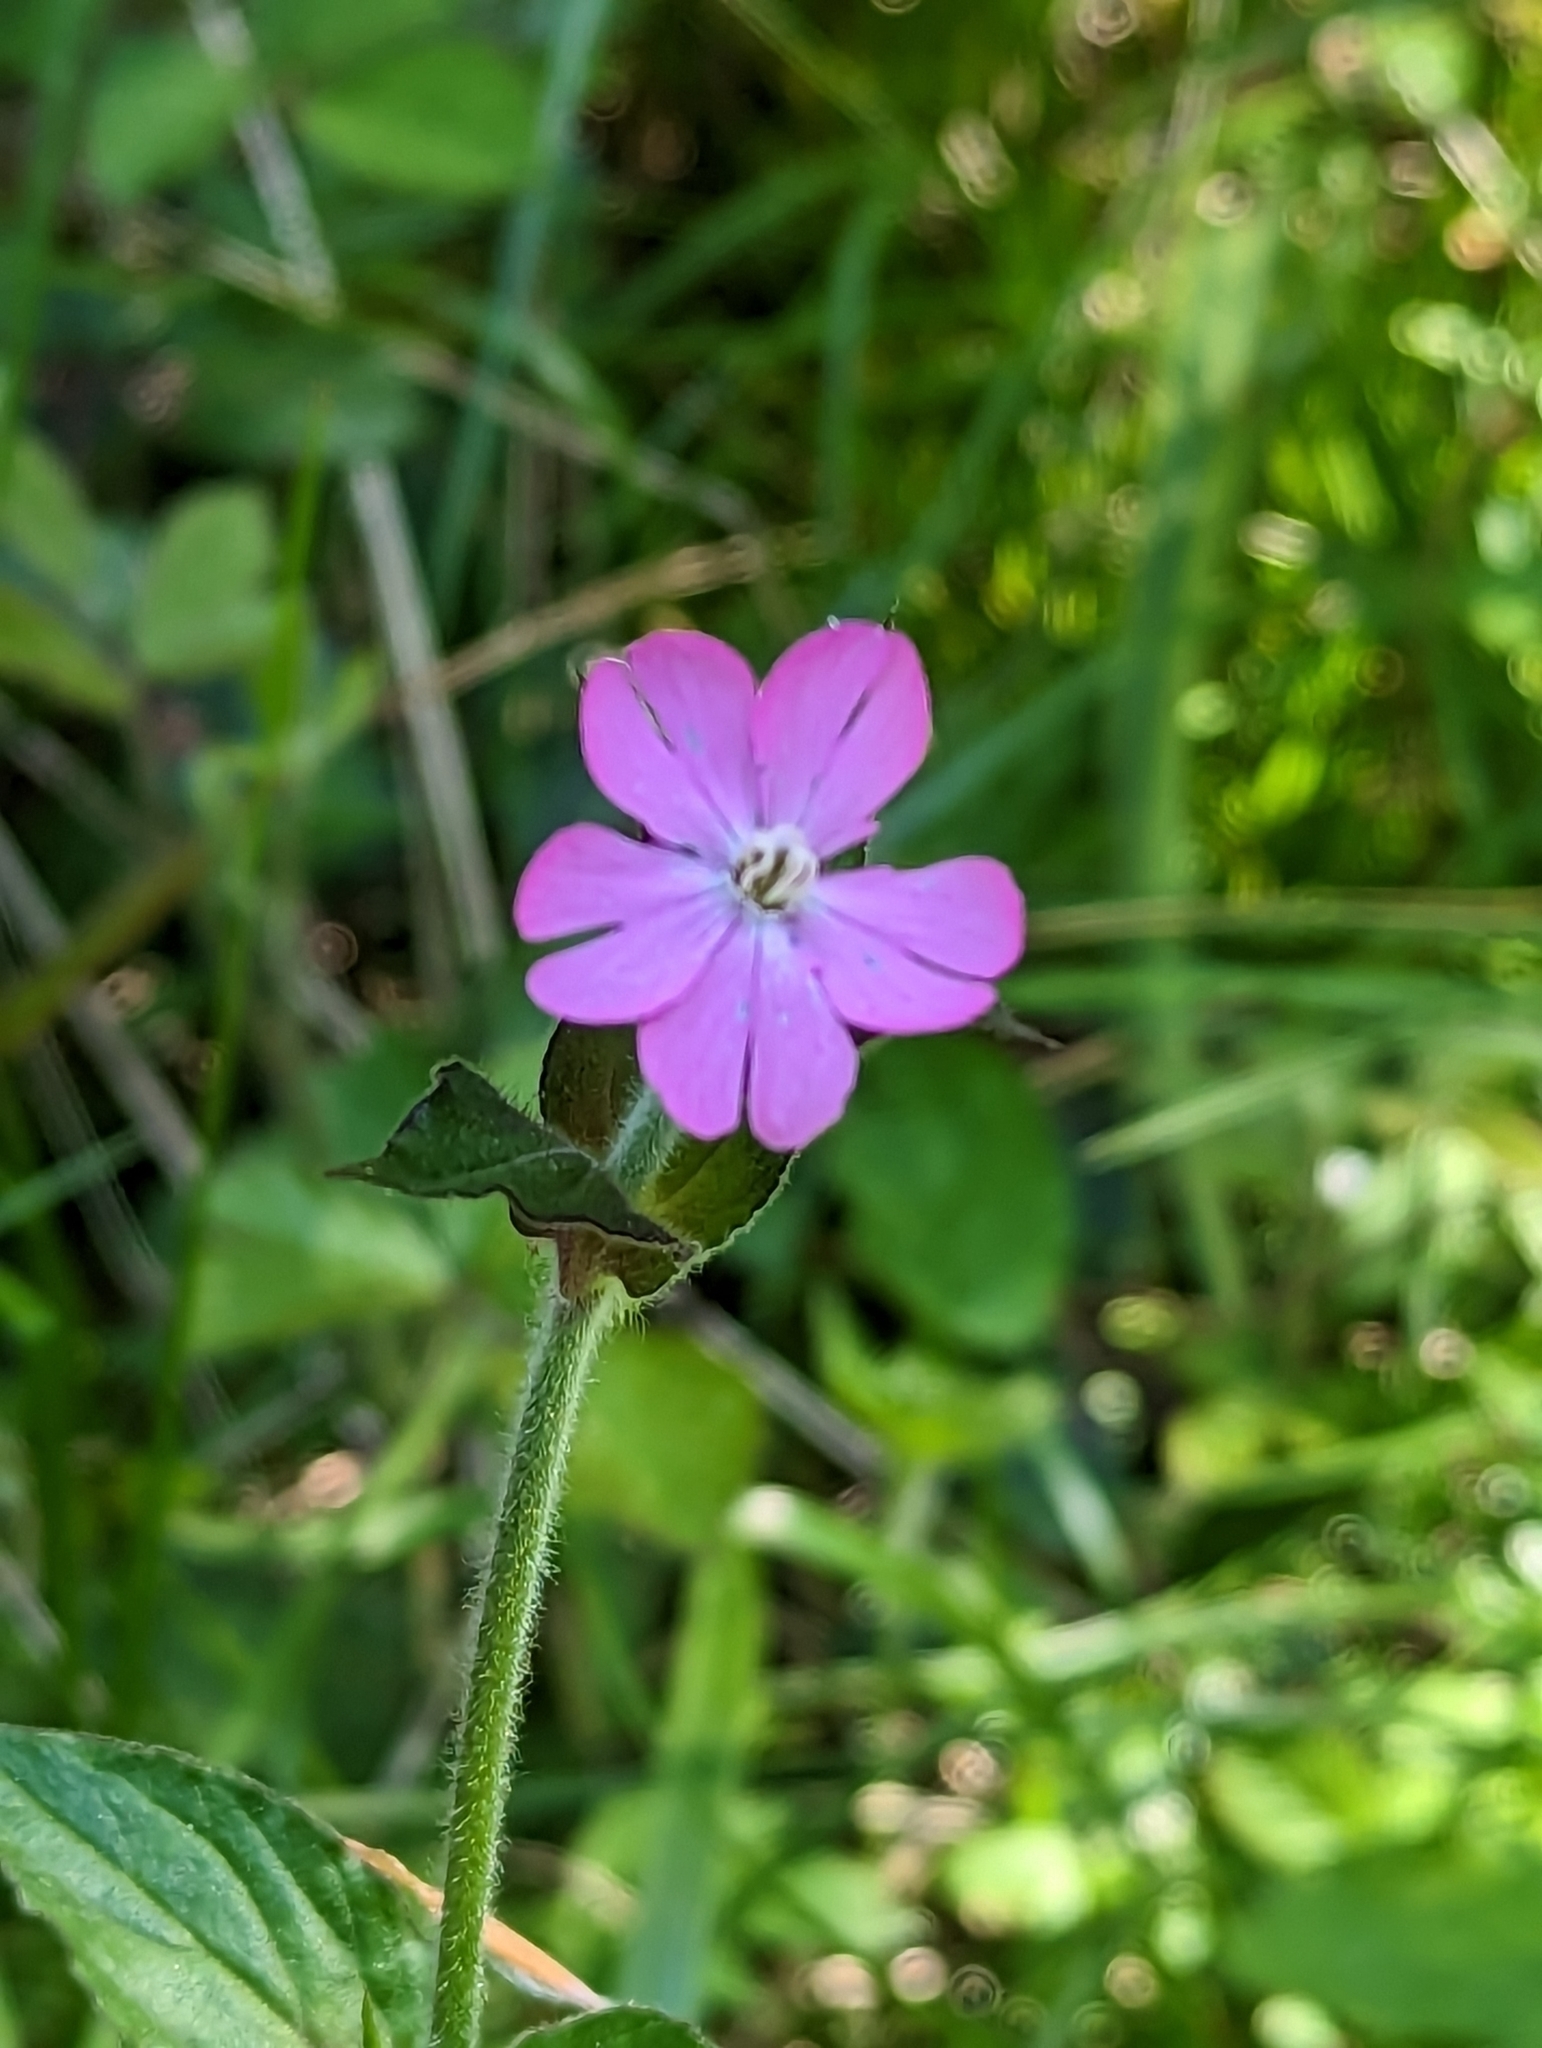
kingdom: Plantae
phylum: Tracheophyta
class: Magnoliopsida
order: Caryophyllales
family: Caryophyllaceae
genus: Silene
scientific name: Silene dioica
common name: Red campion
